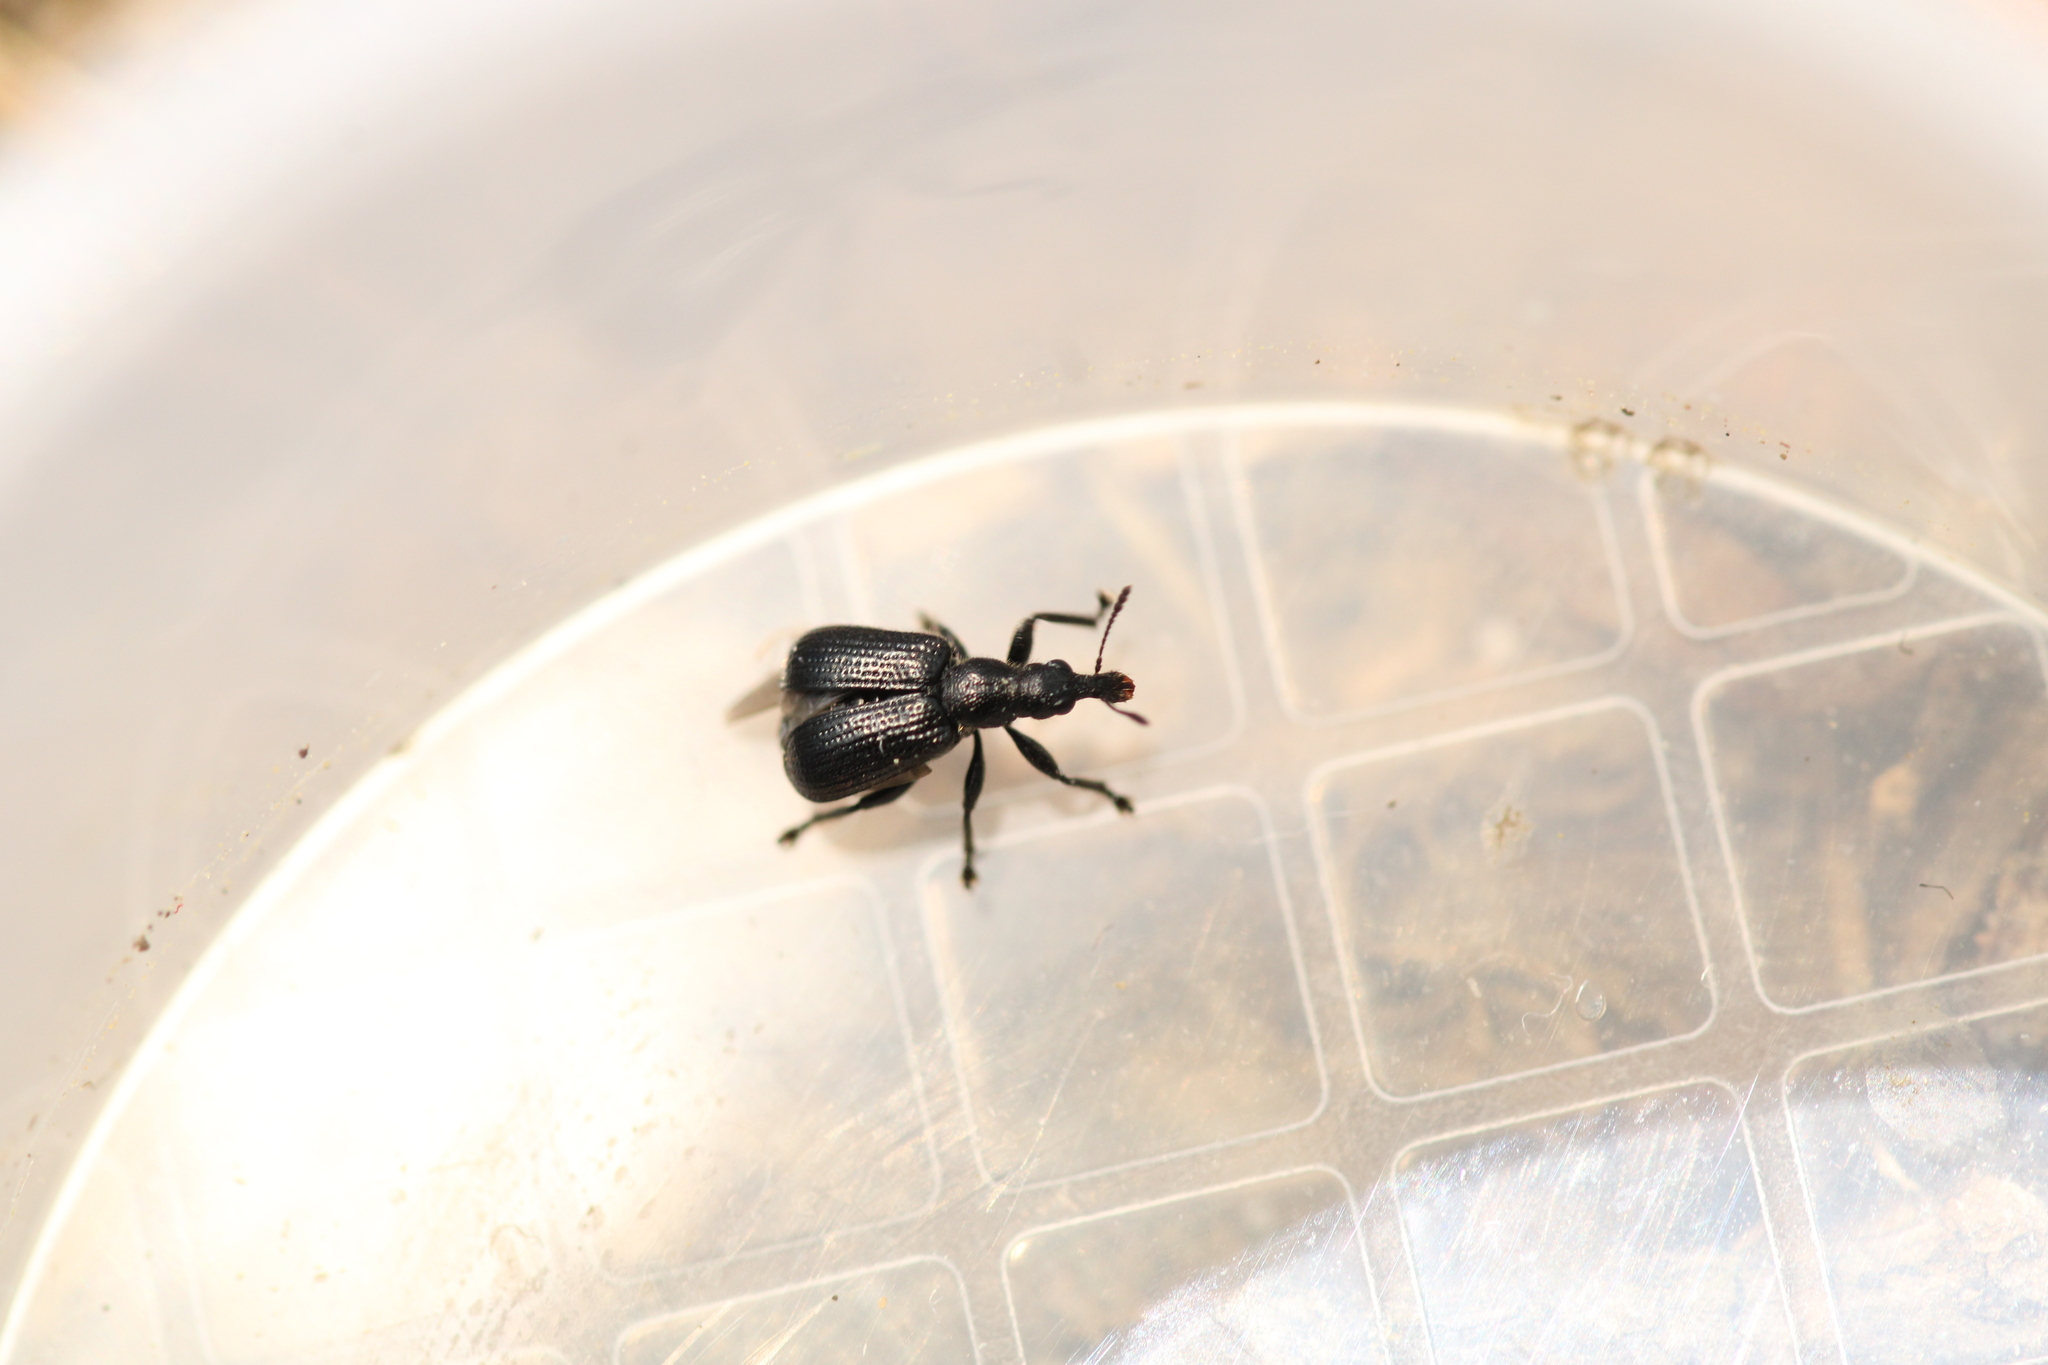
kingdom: Animalia
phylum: Arthropoda
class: Insecta
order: Coleoptera
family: Attelabidae
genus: Deporaus
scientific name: Deporaus betulae
